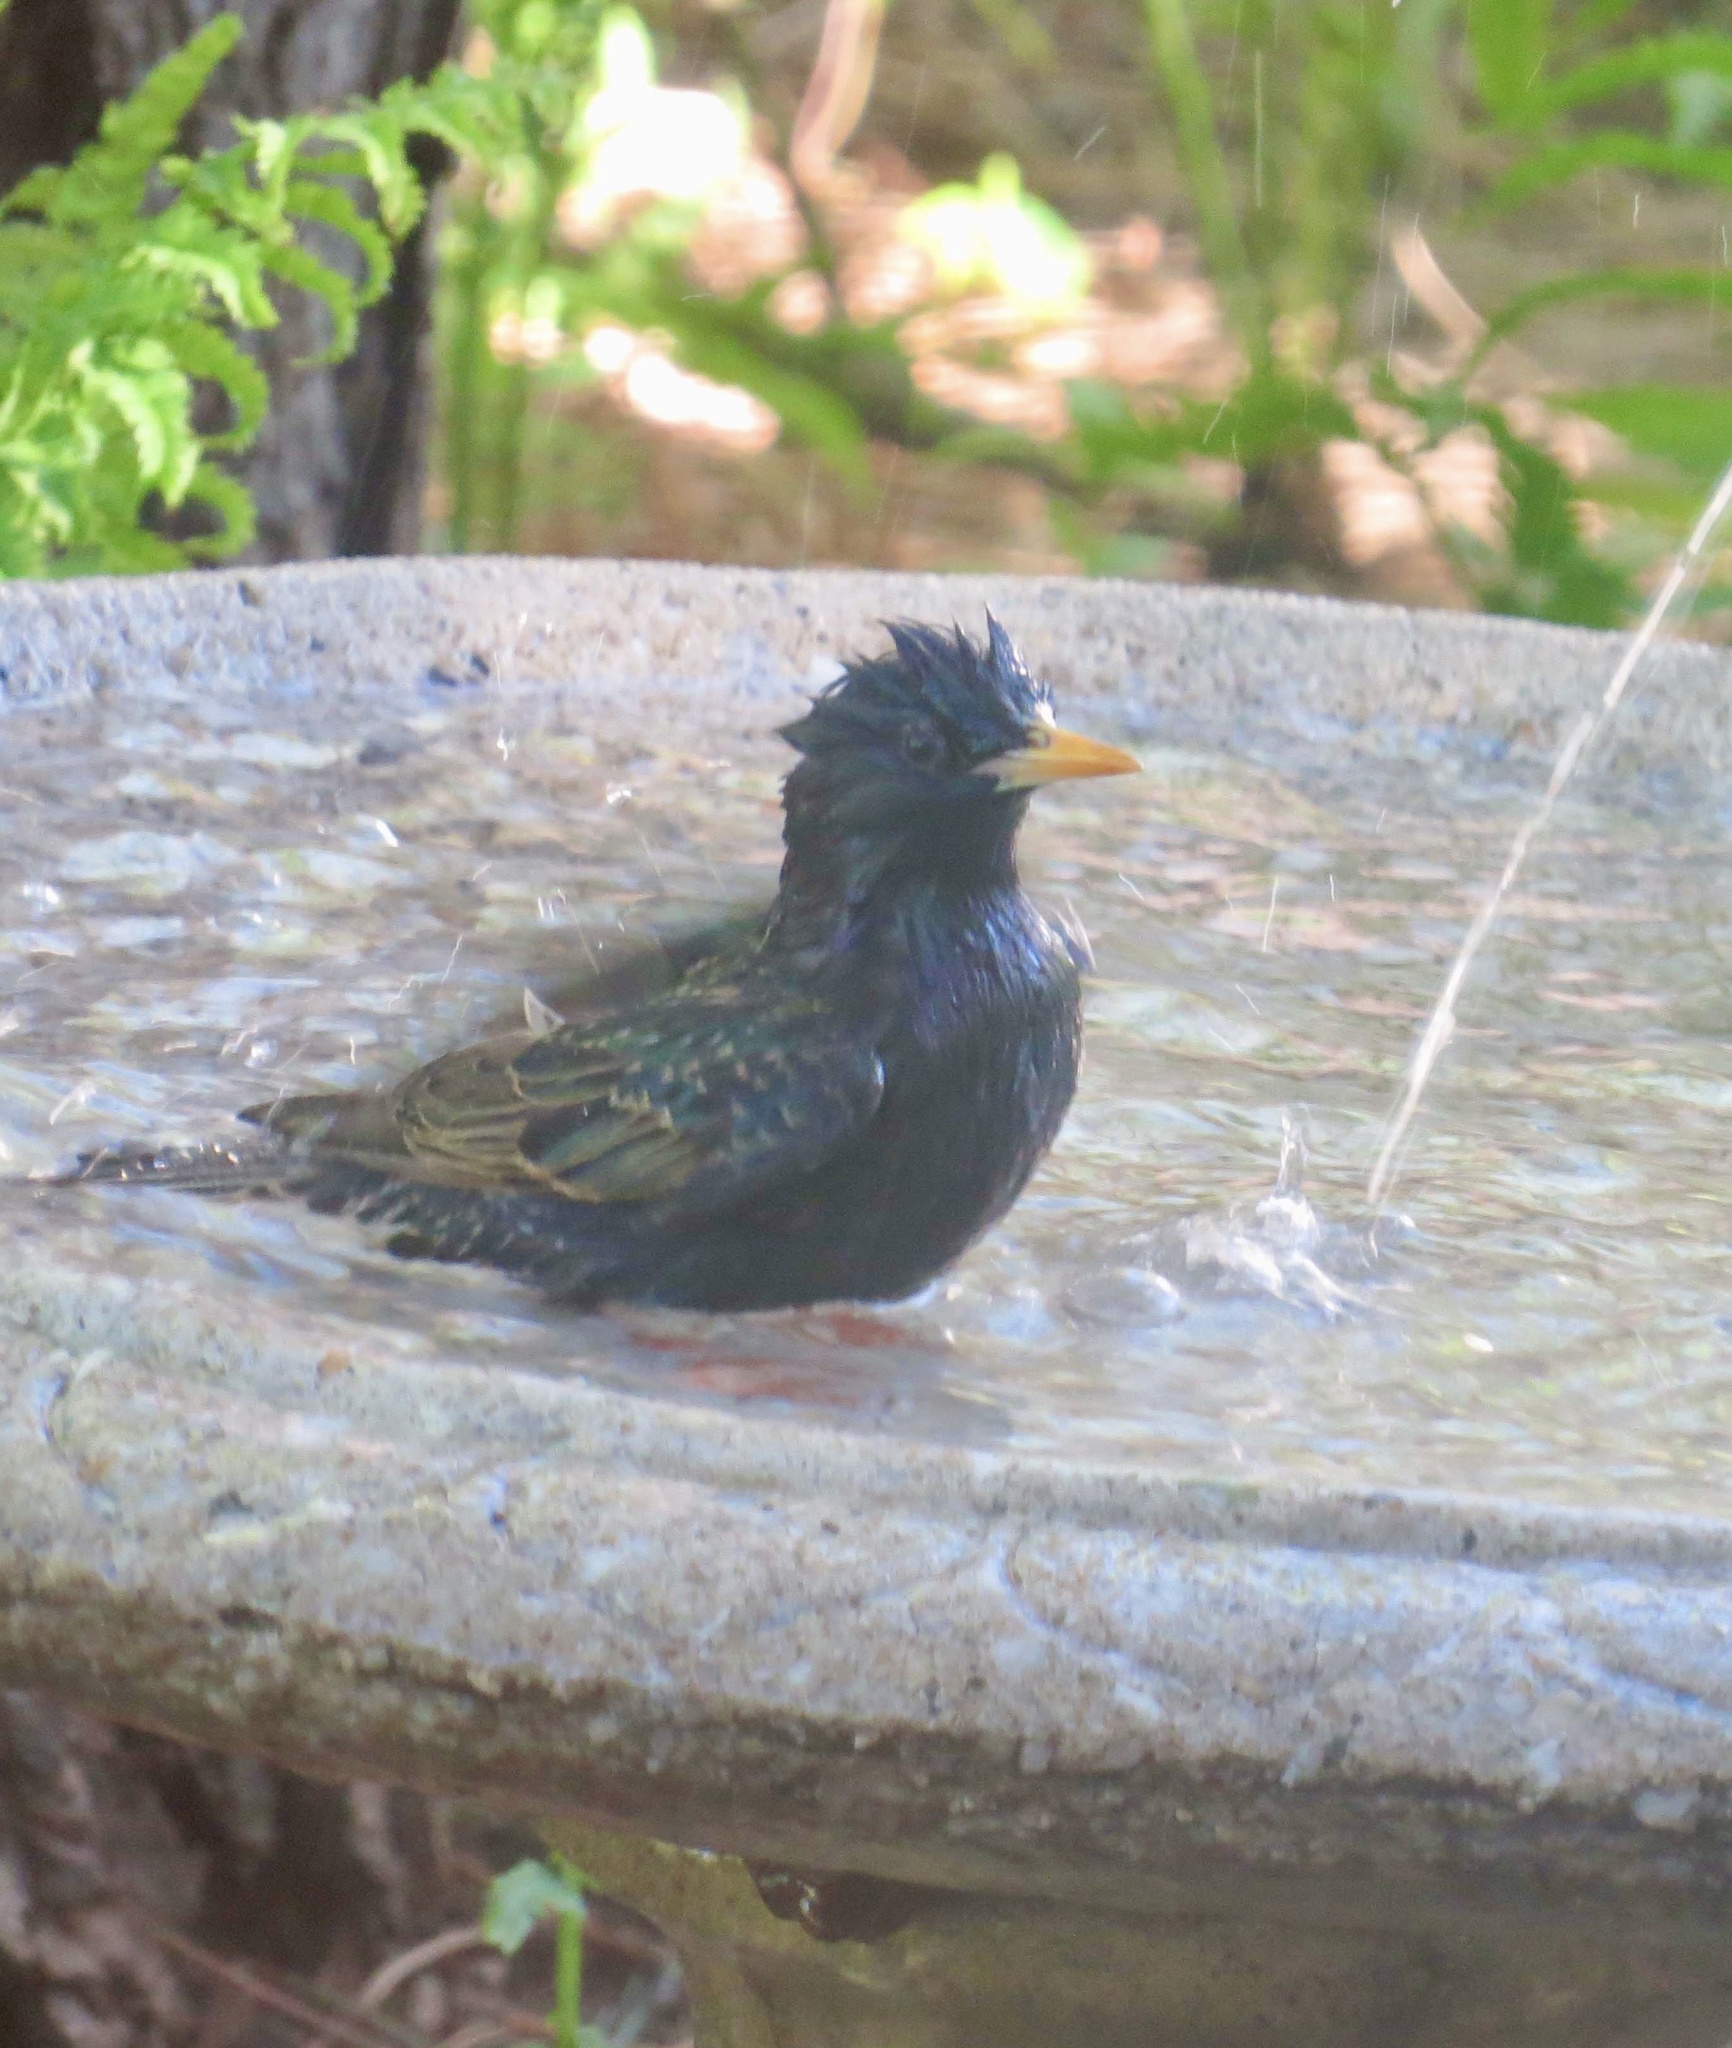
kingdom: Animalia
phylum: Chordata
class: Aves
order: Passeriformes
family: Sturnidae
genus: Sturnus
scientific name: Sturnus vulgaris
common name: Common starling
